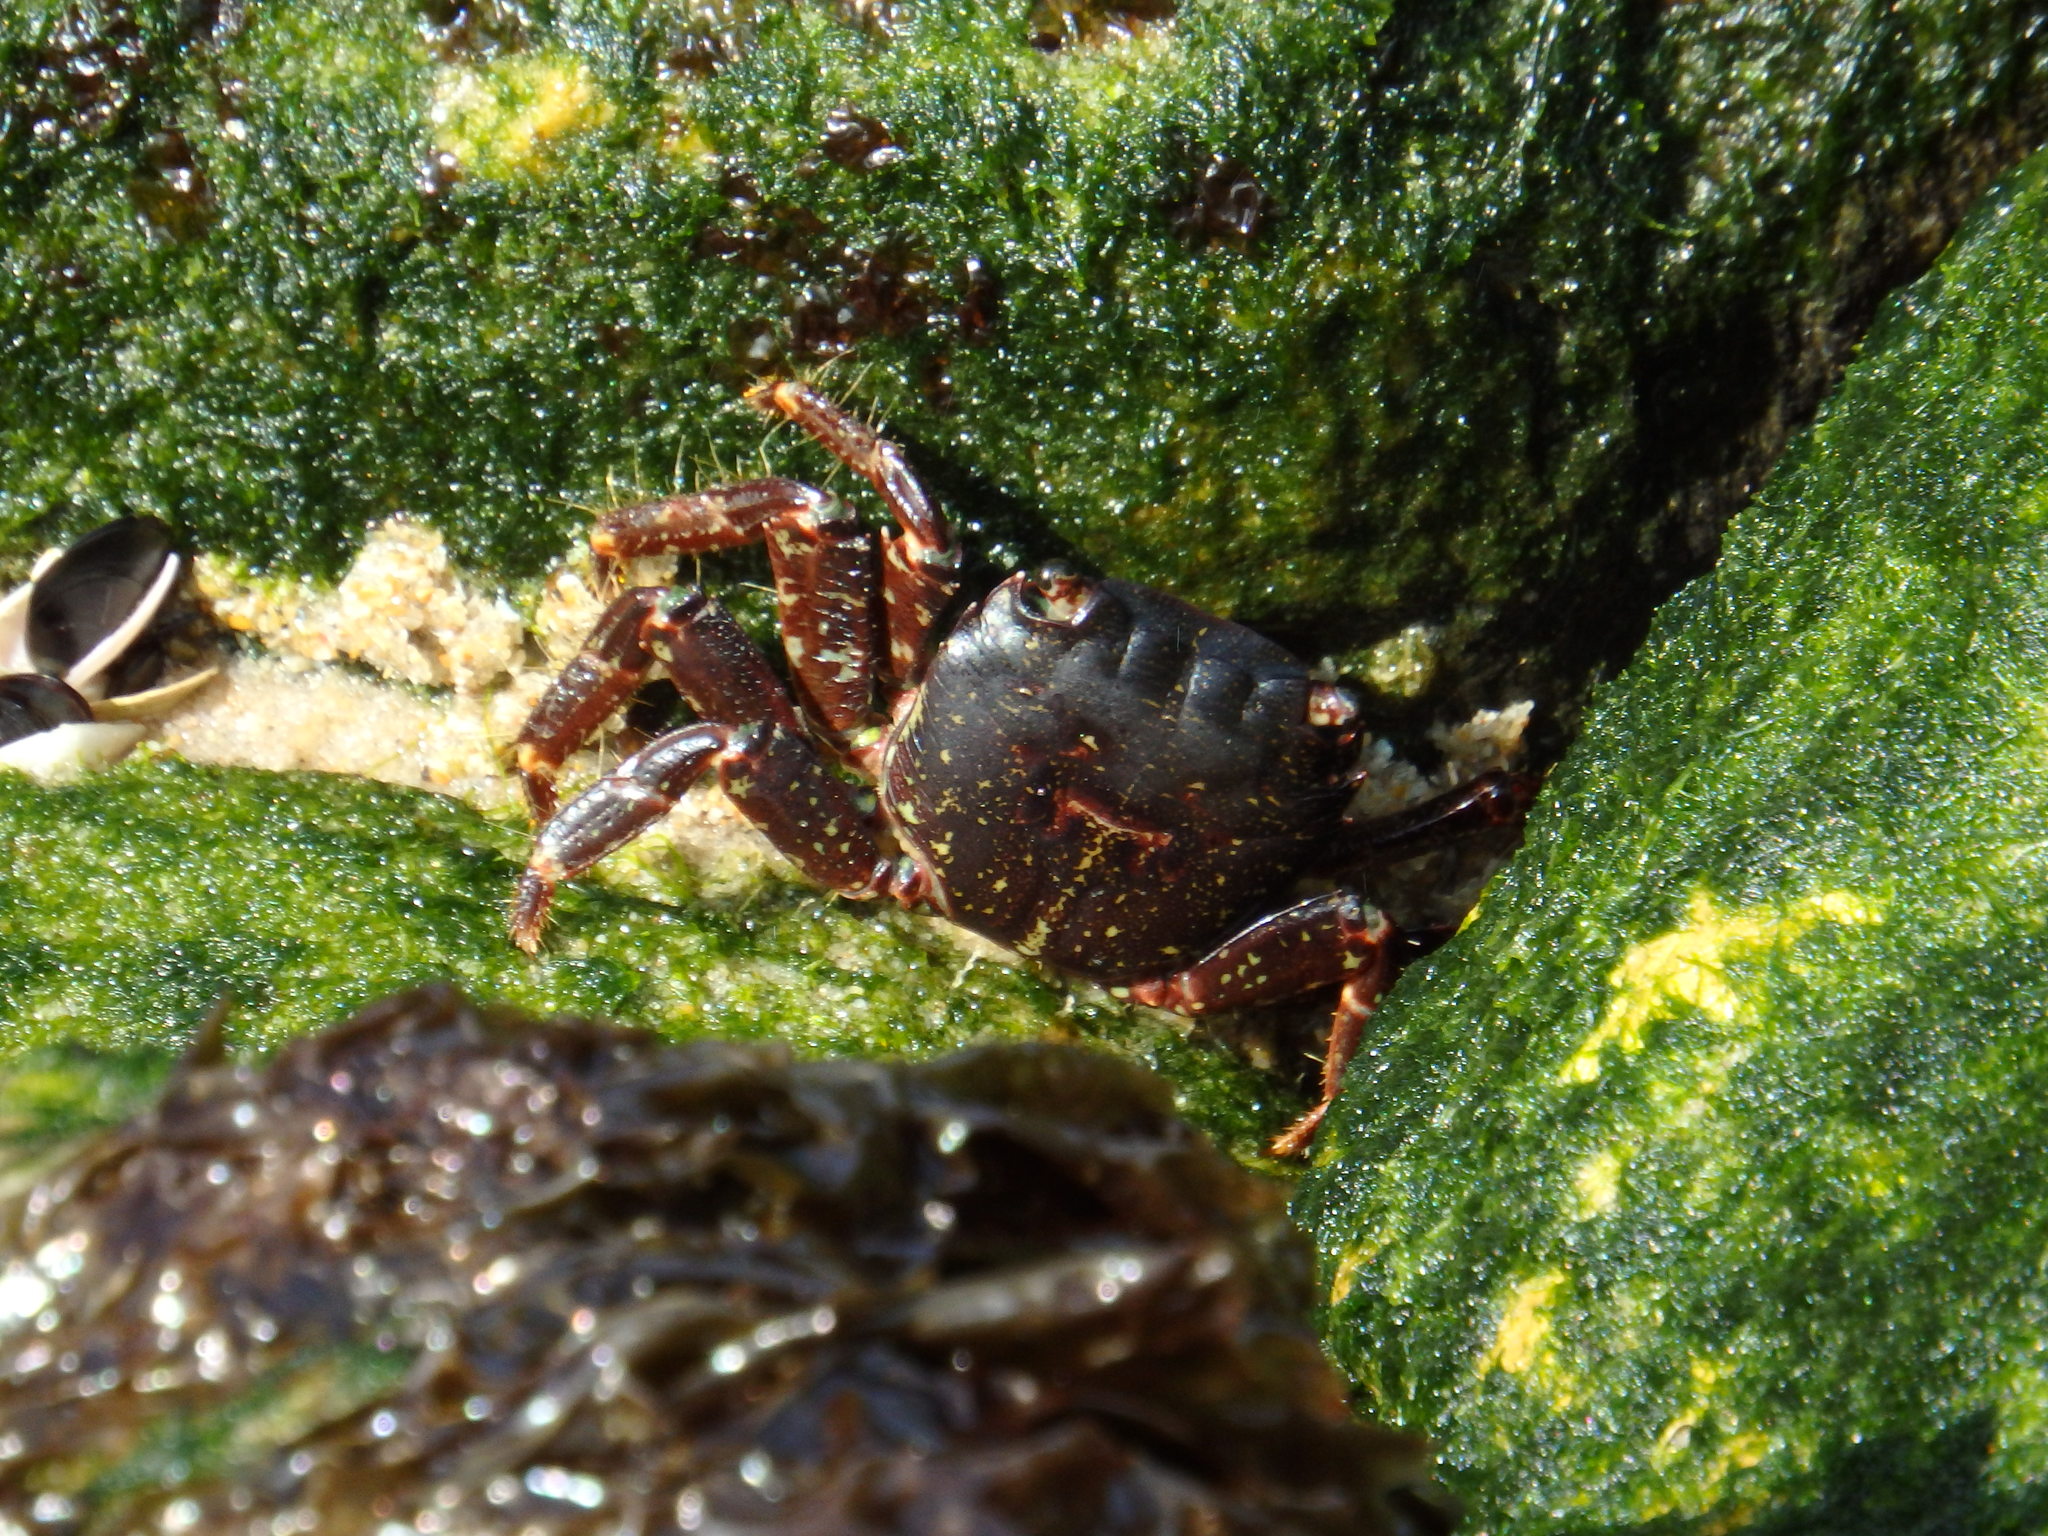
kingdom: Animalia
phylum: Arthropoda
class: Malacostraca
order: Decapoda
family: Grapsidae
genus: Pachygrapsus
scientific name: Pachygrapsus marmoratus
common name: Marbled rock crab
